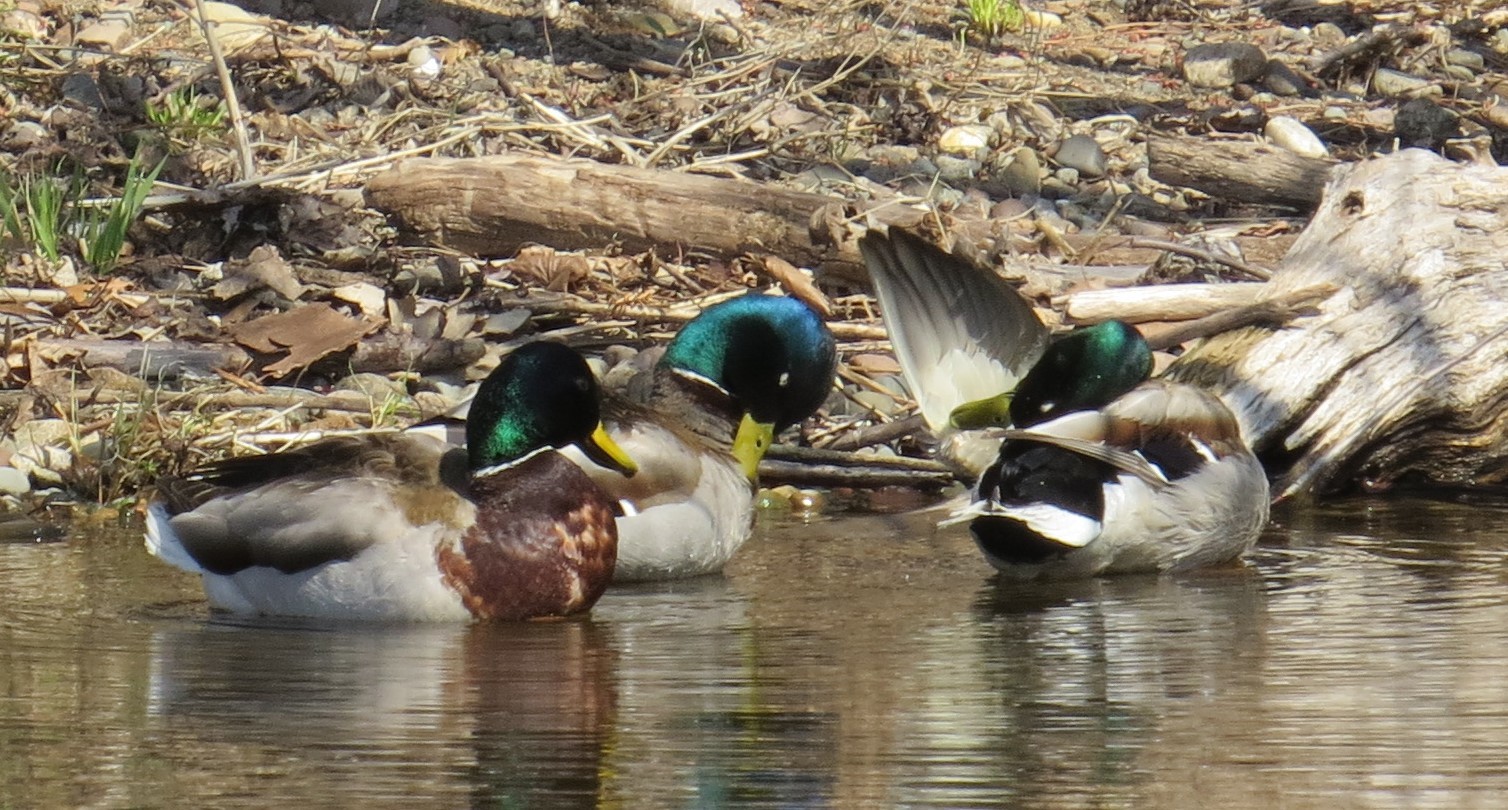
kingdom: Animalia
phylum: Chordata
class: Aves
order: Anseriformes
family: Anatidae
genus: Anas
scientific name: Anas platyrhynchos
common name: Mallard
